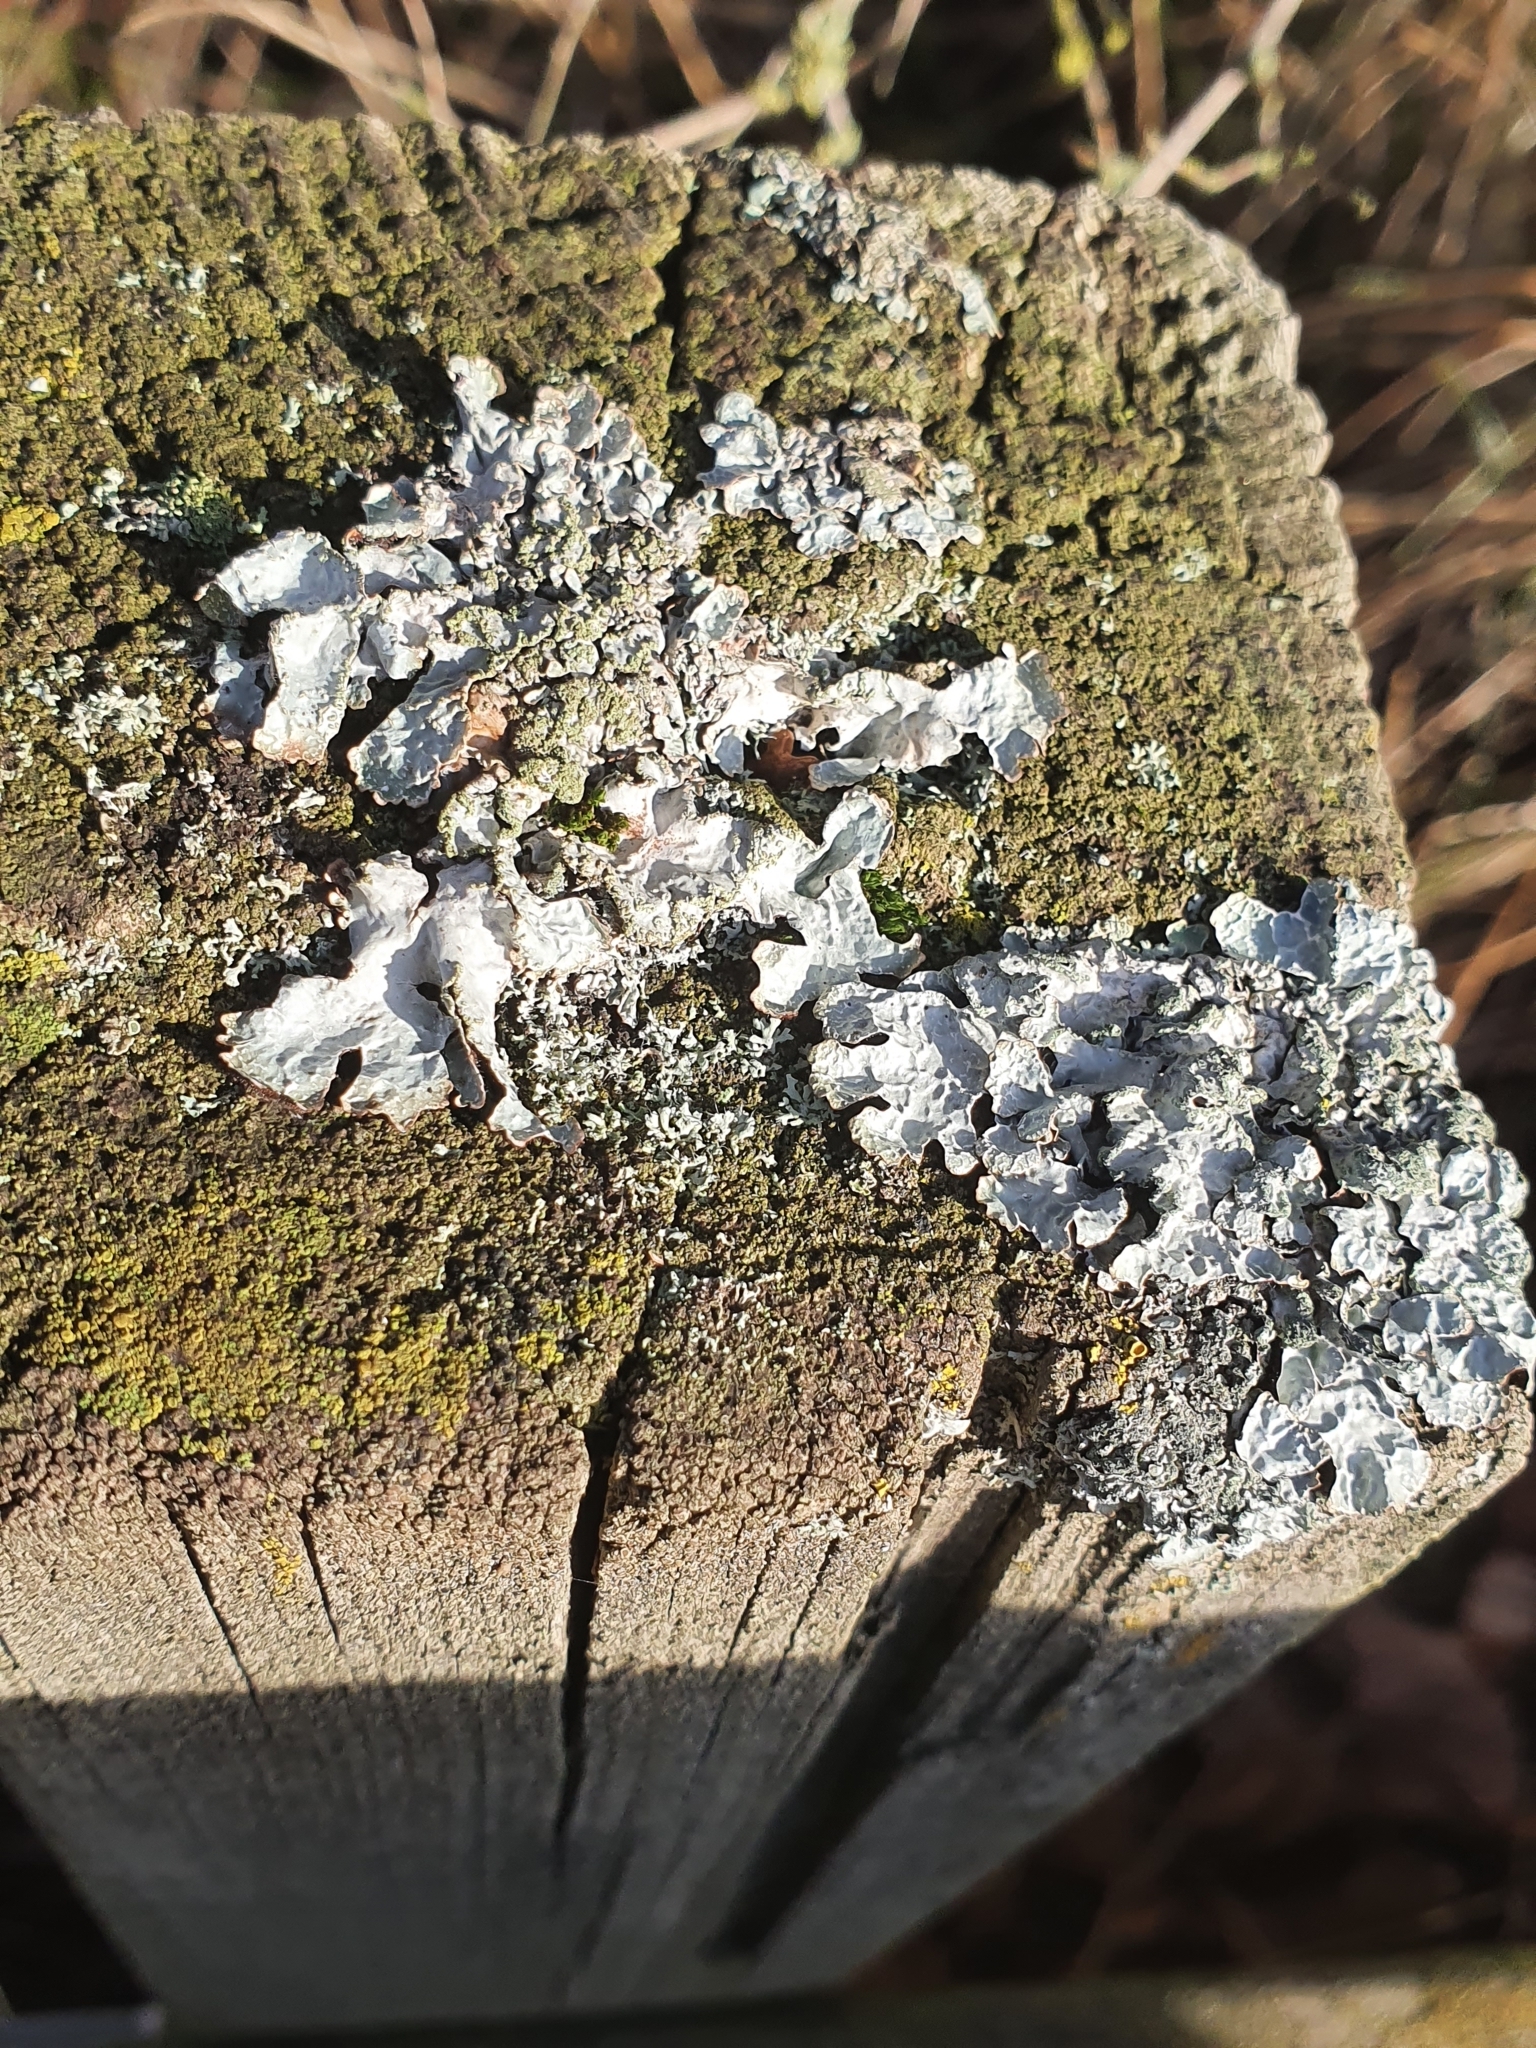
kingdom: Fungi
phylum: Ascomycota
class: Lecanoromycetes
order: Lecanorales
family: Parmeliaceae
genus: Parmelia
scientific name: Parmelia sulcata
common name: Netted shield lichen
